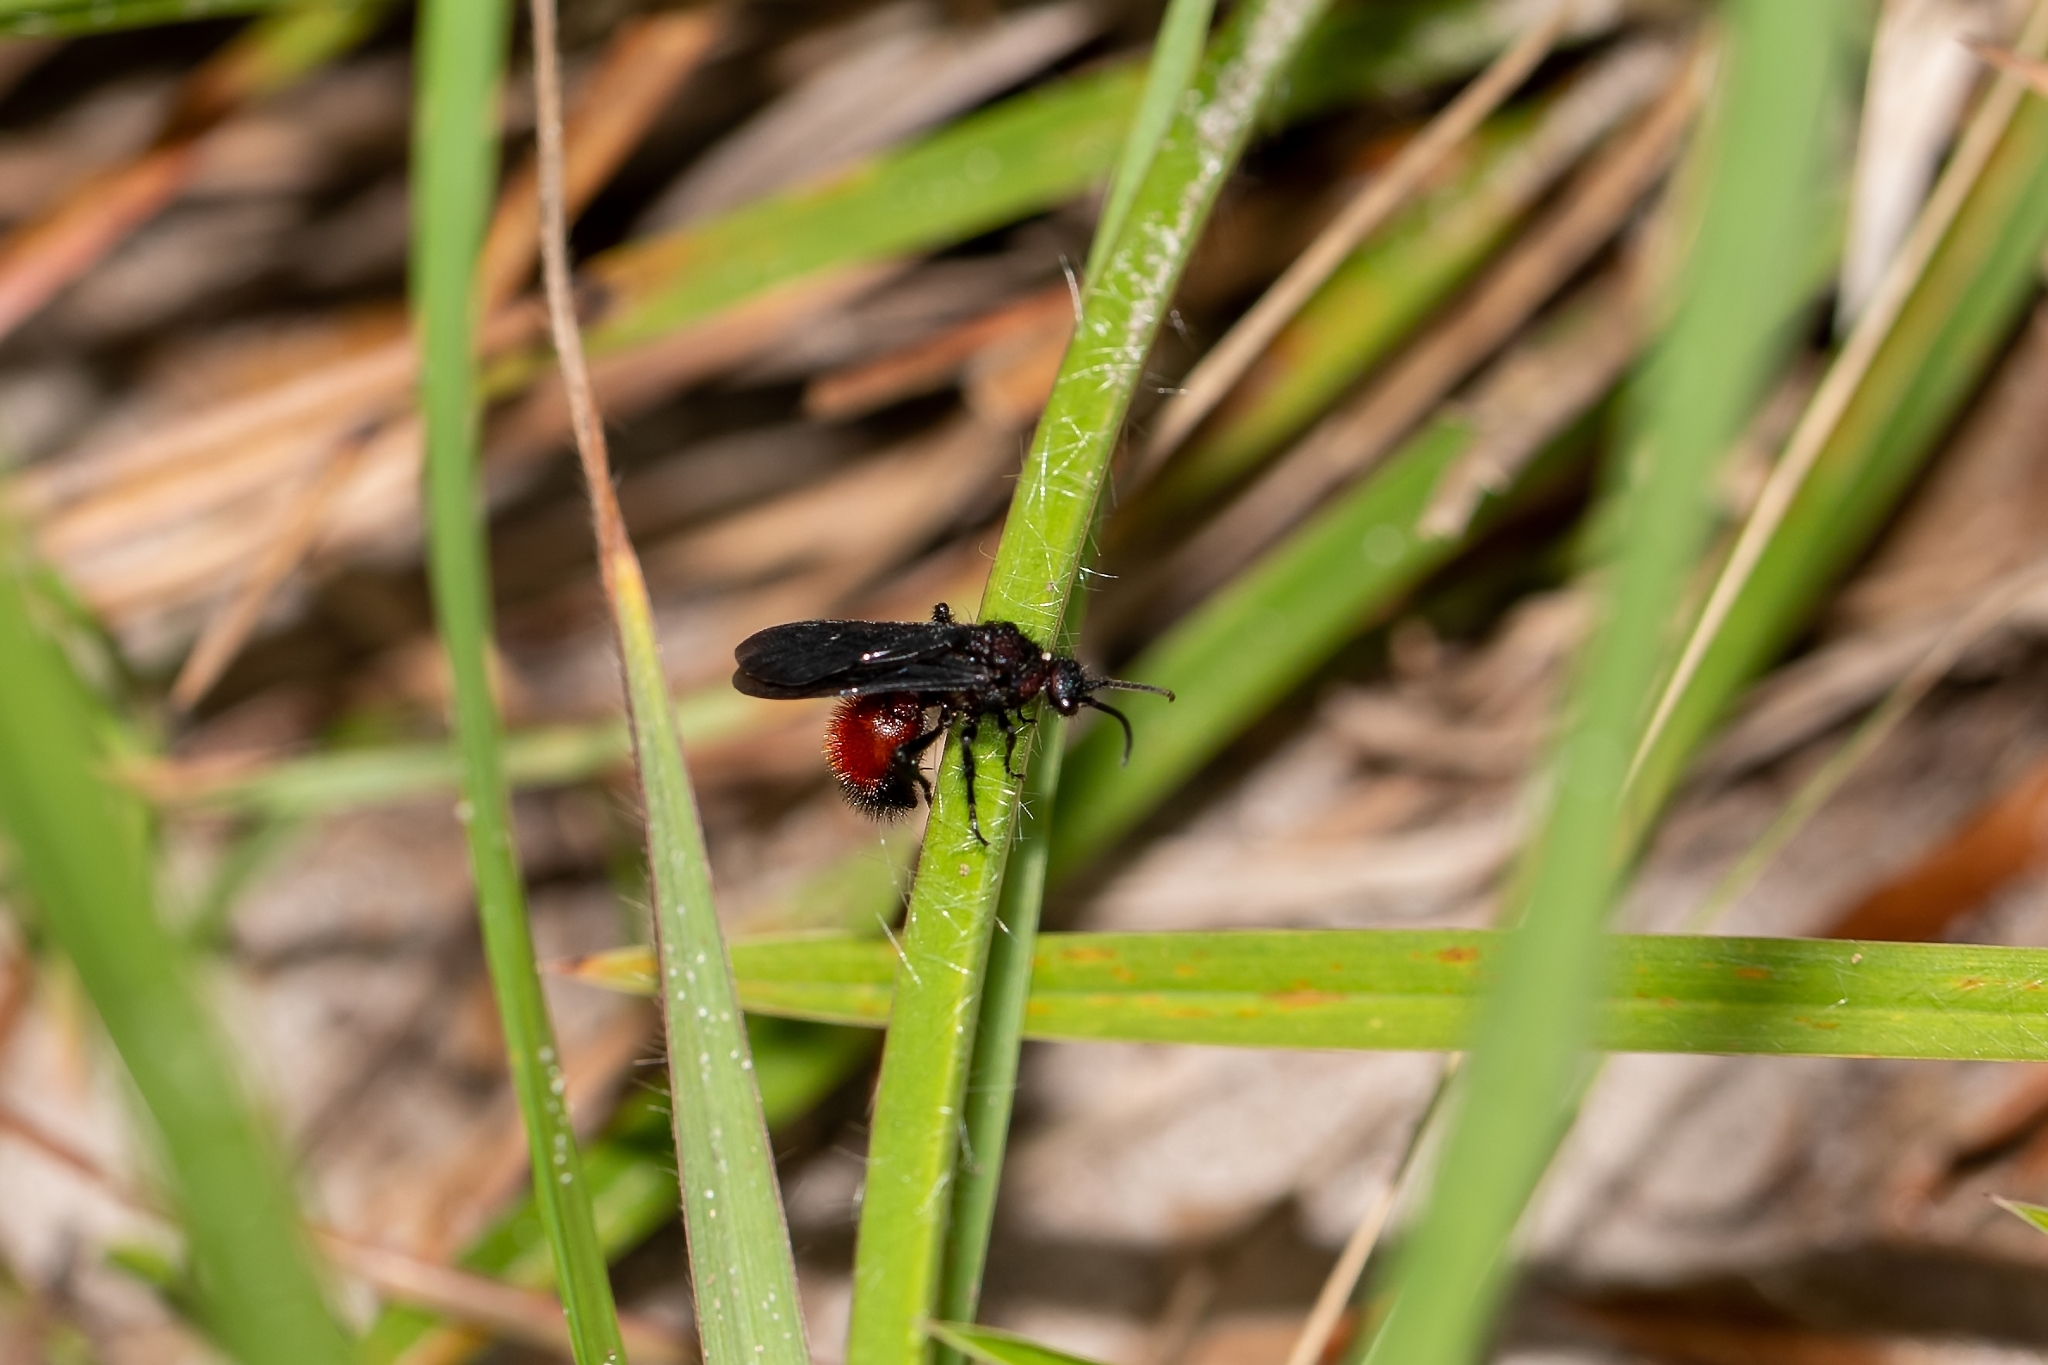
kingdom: Animalia
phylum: Arthropoda
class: Insecta
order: Hymenoptera
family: Mutillidae
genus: Dasymutilla
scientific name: Dasymutilla
